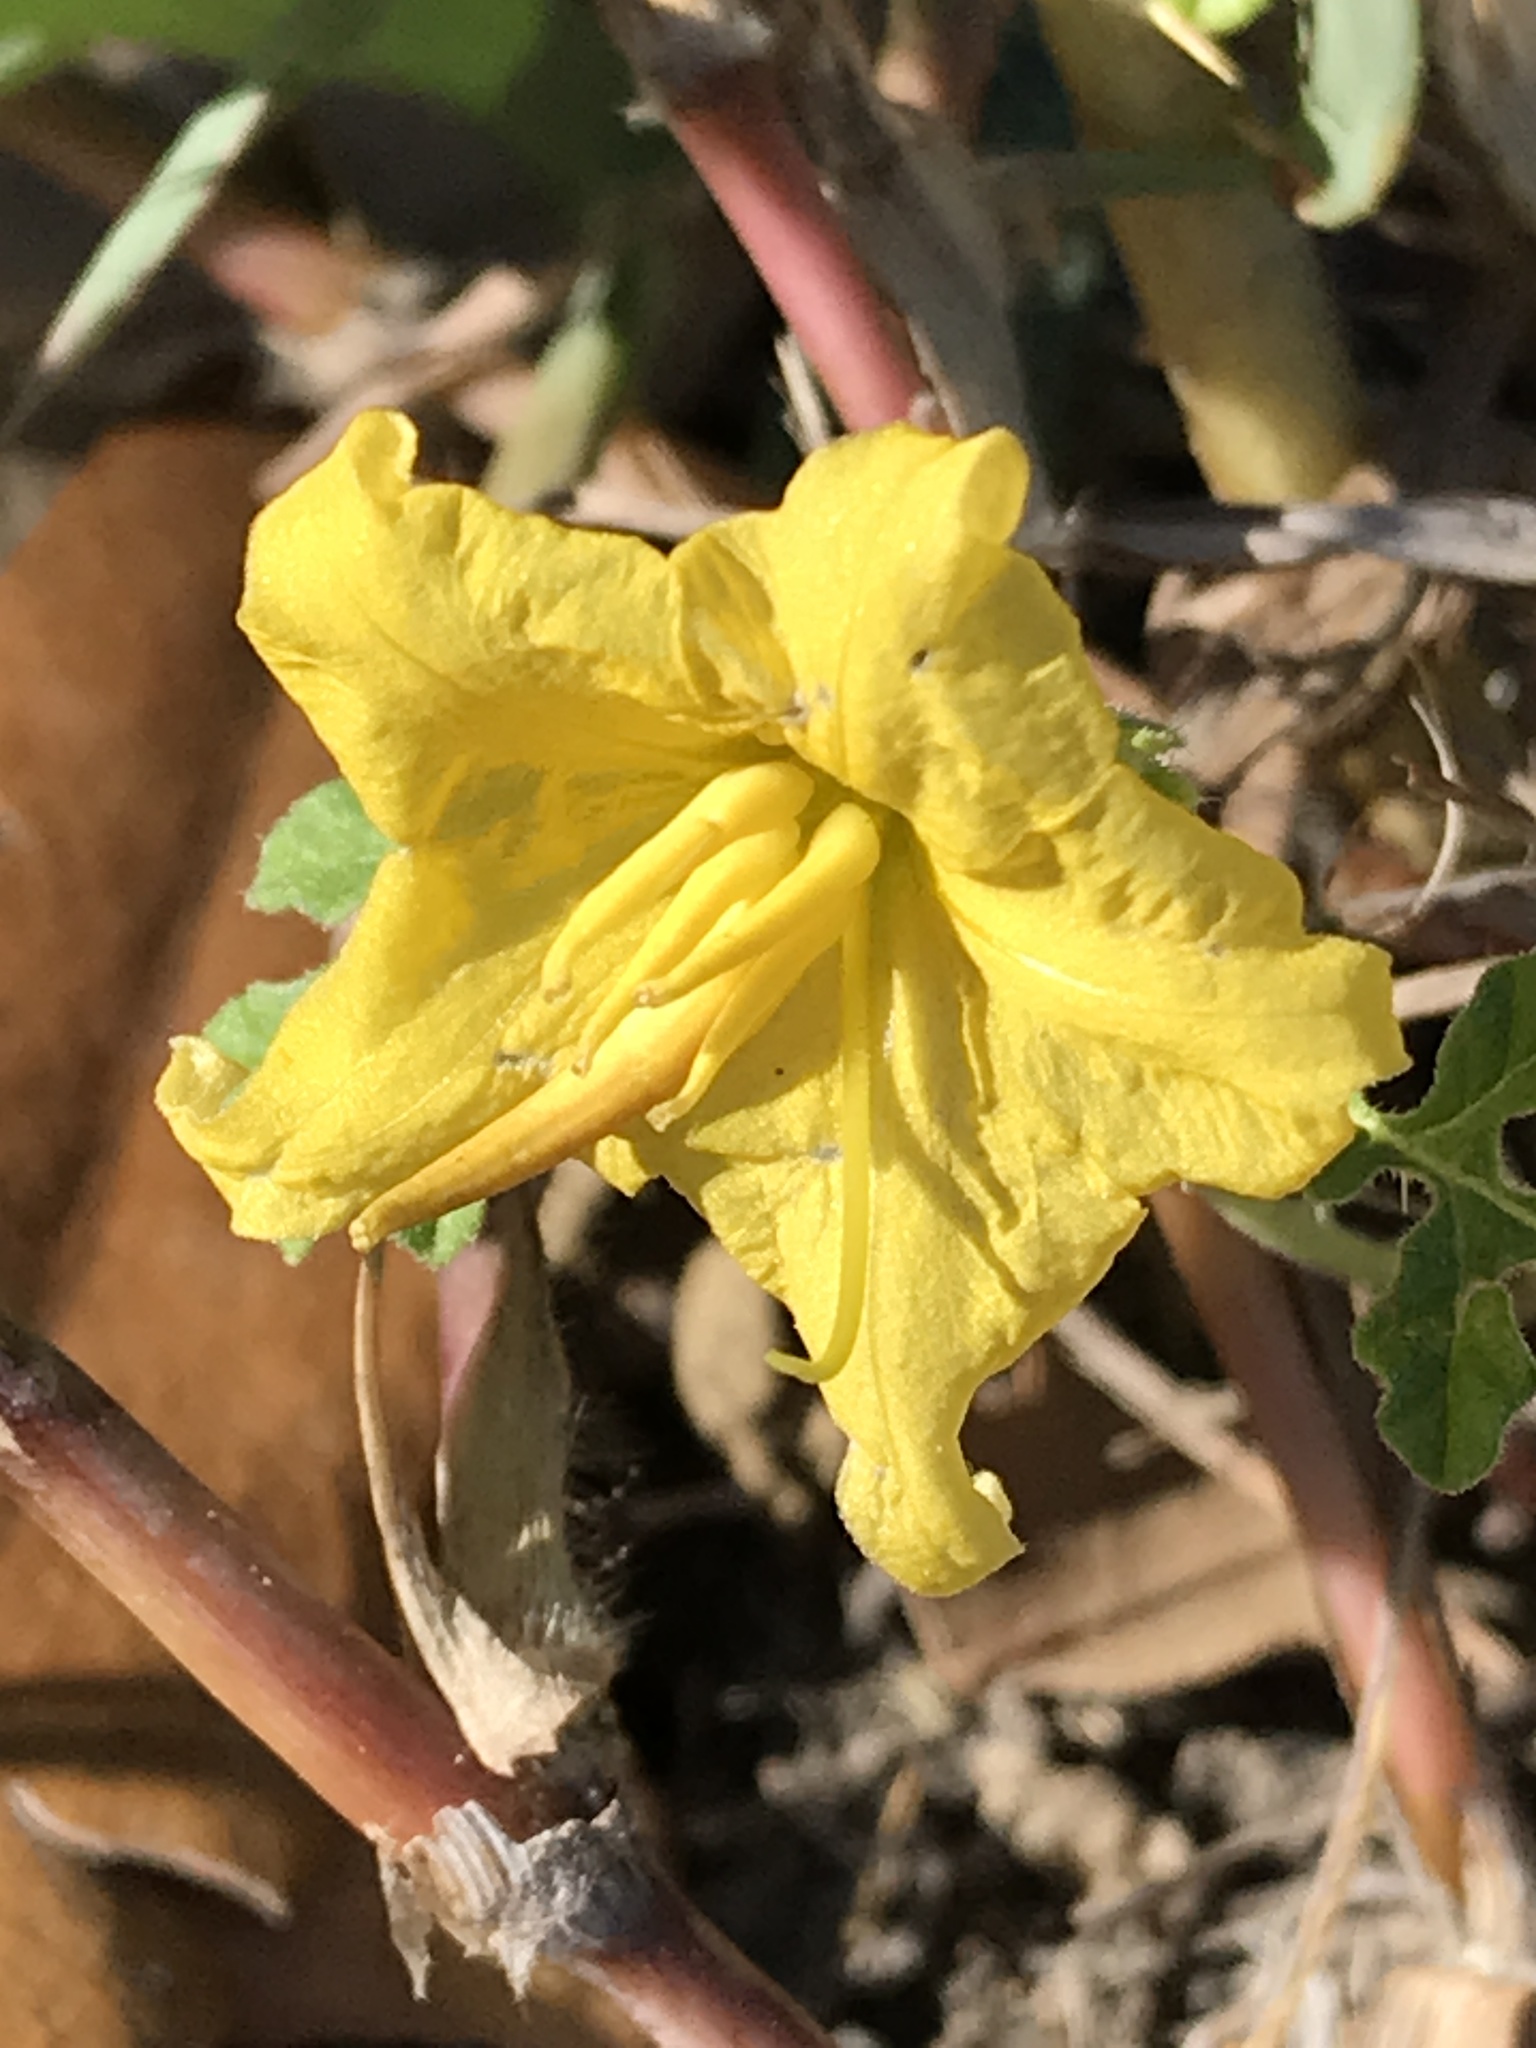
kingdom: Plantae
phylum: Tracheophyta
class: Magnoliopsida
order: Solanales
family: Solanaceae
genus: Solanum
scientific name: Solanum angustifolium
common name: Buffalobur nightshade
